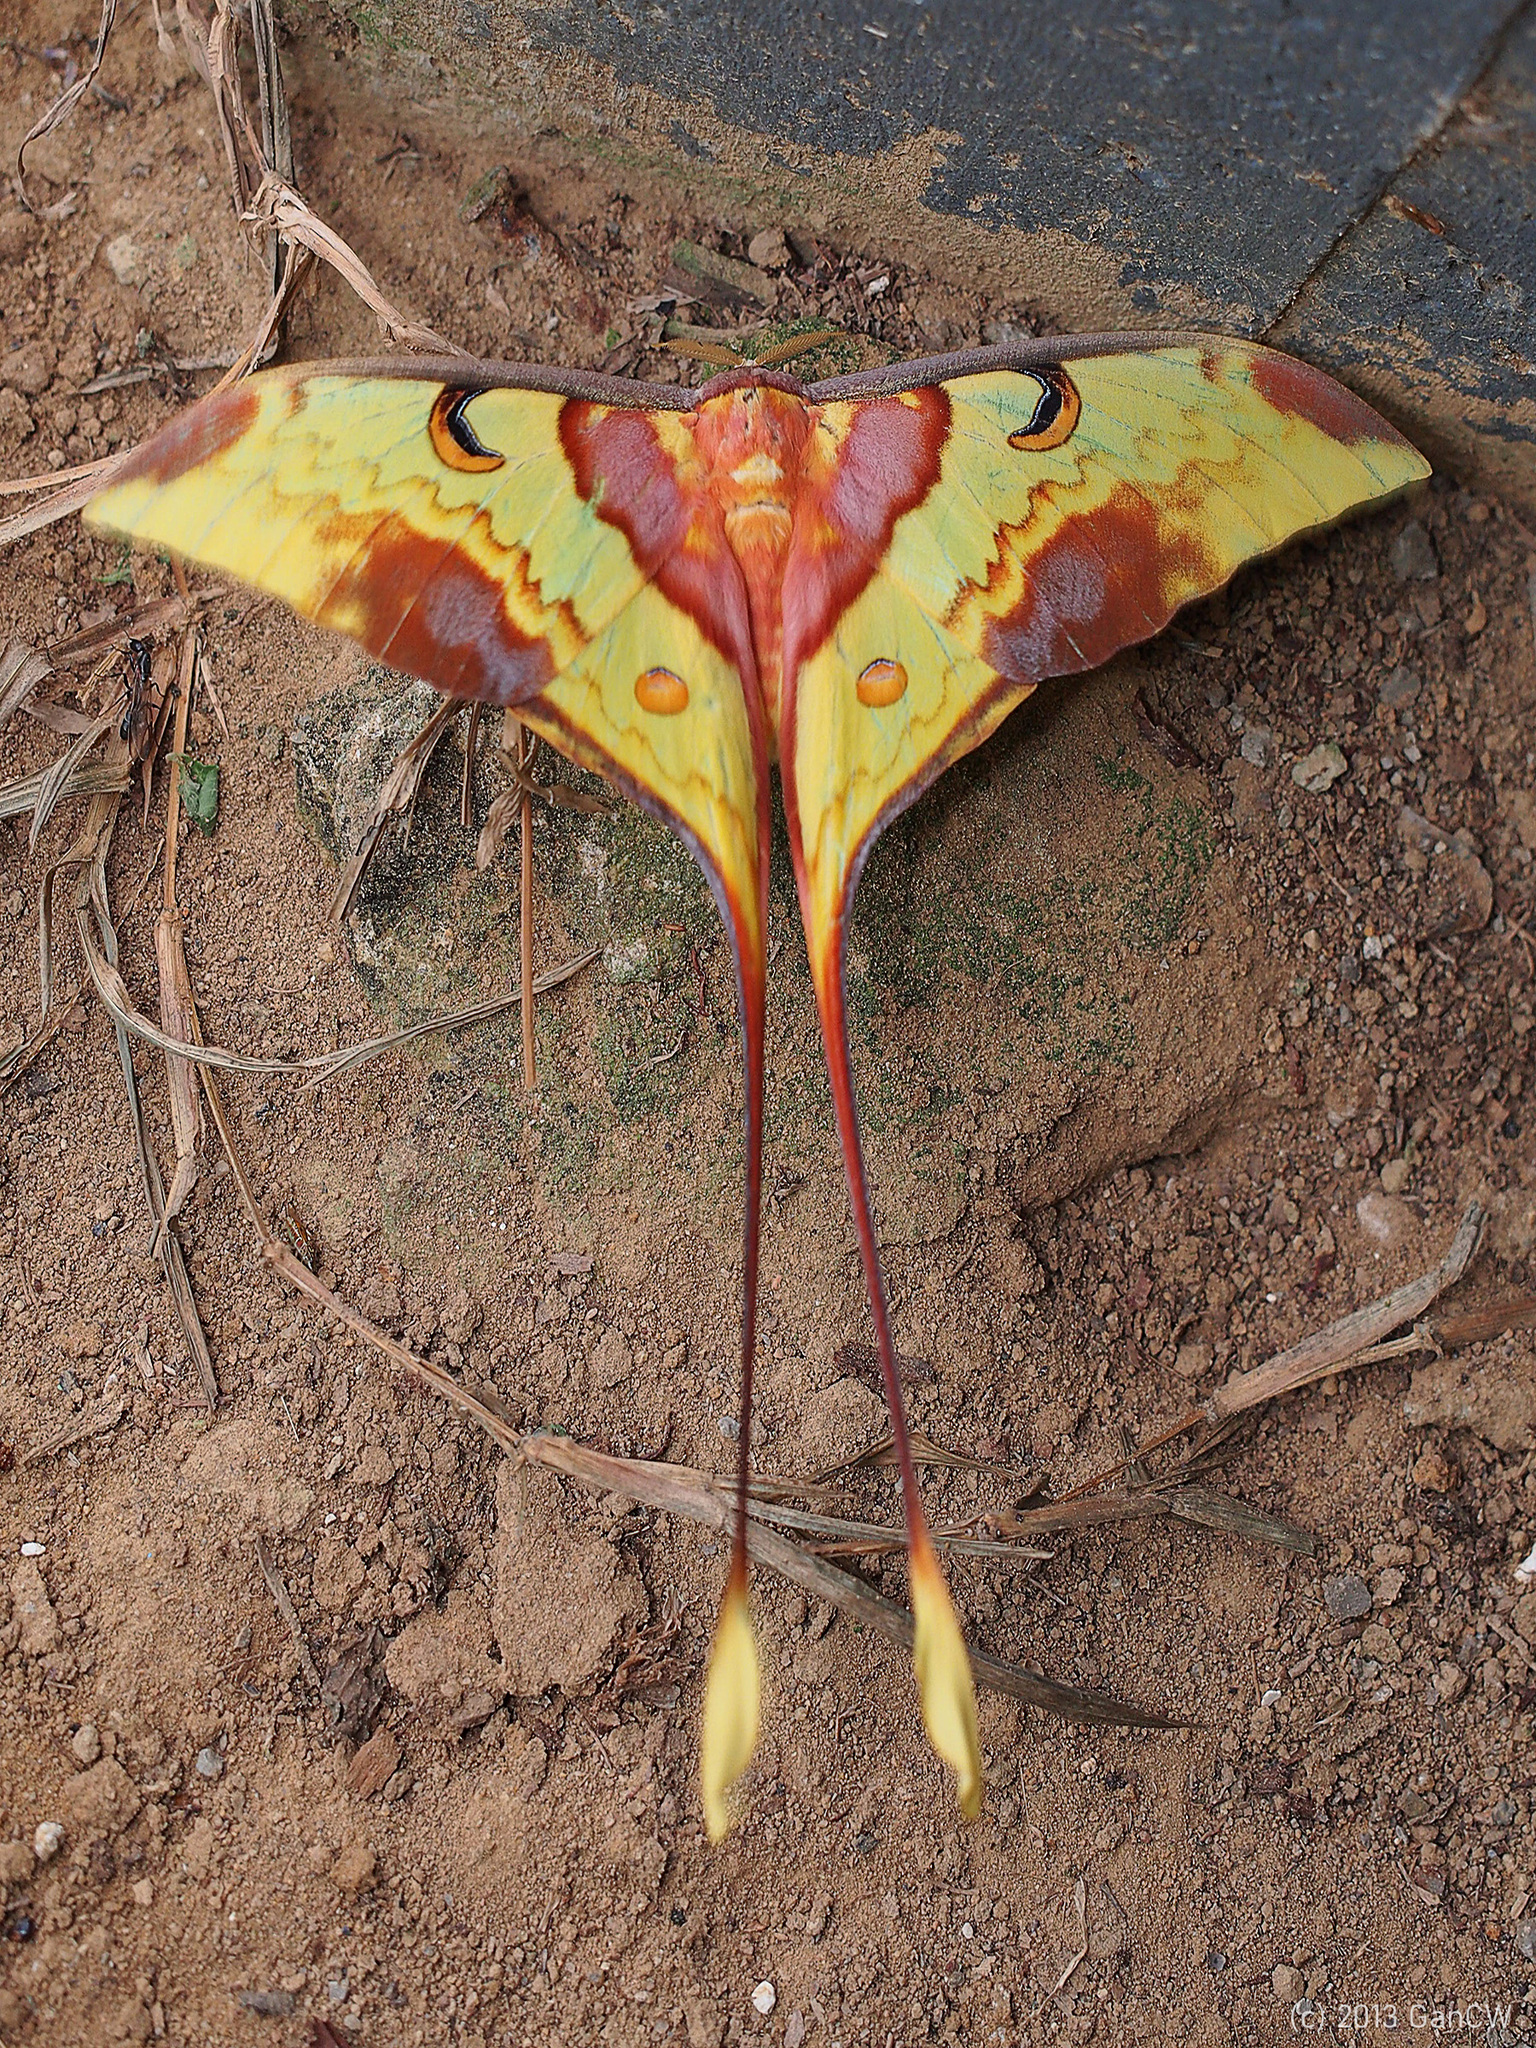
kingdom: Animalia
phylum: Arthropoda
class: Insecta
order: Lepidoptera
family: Saturniidae
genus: Actias
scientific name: Actias maenas
